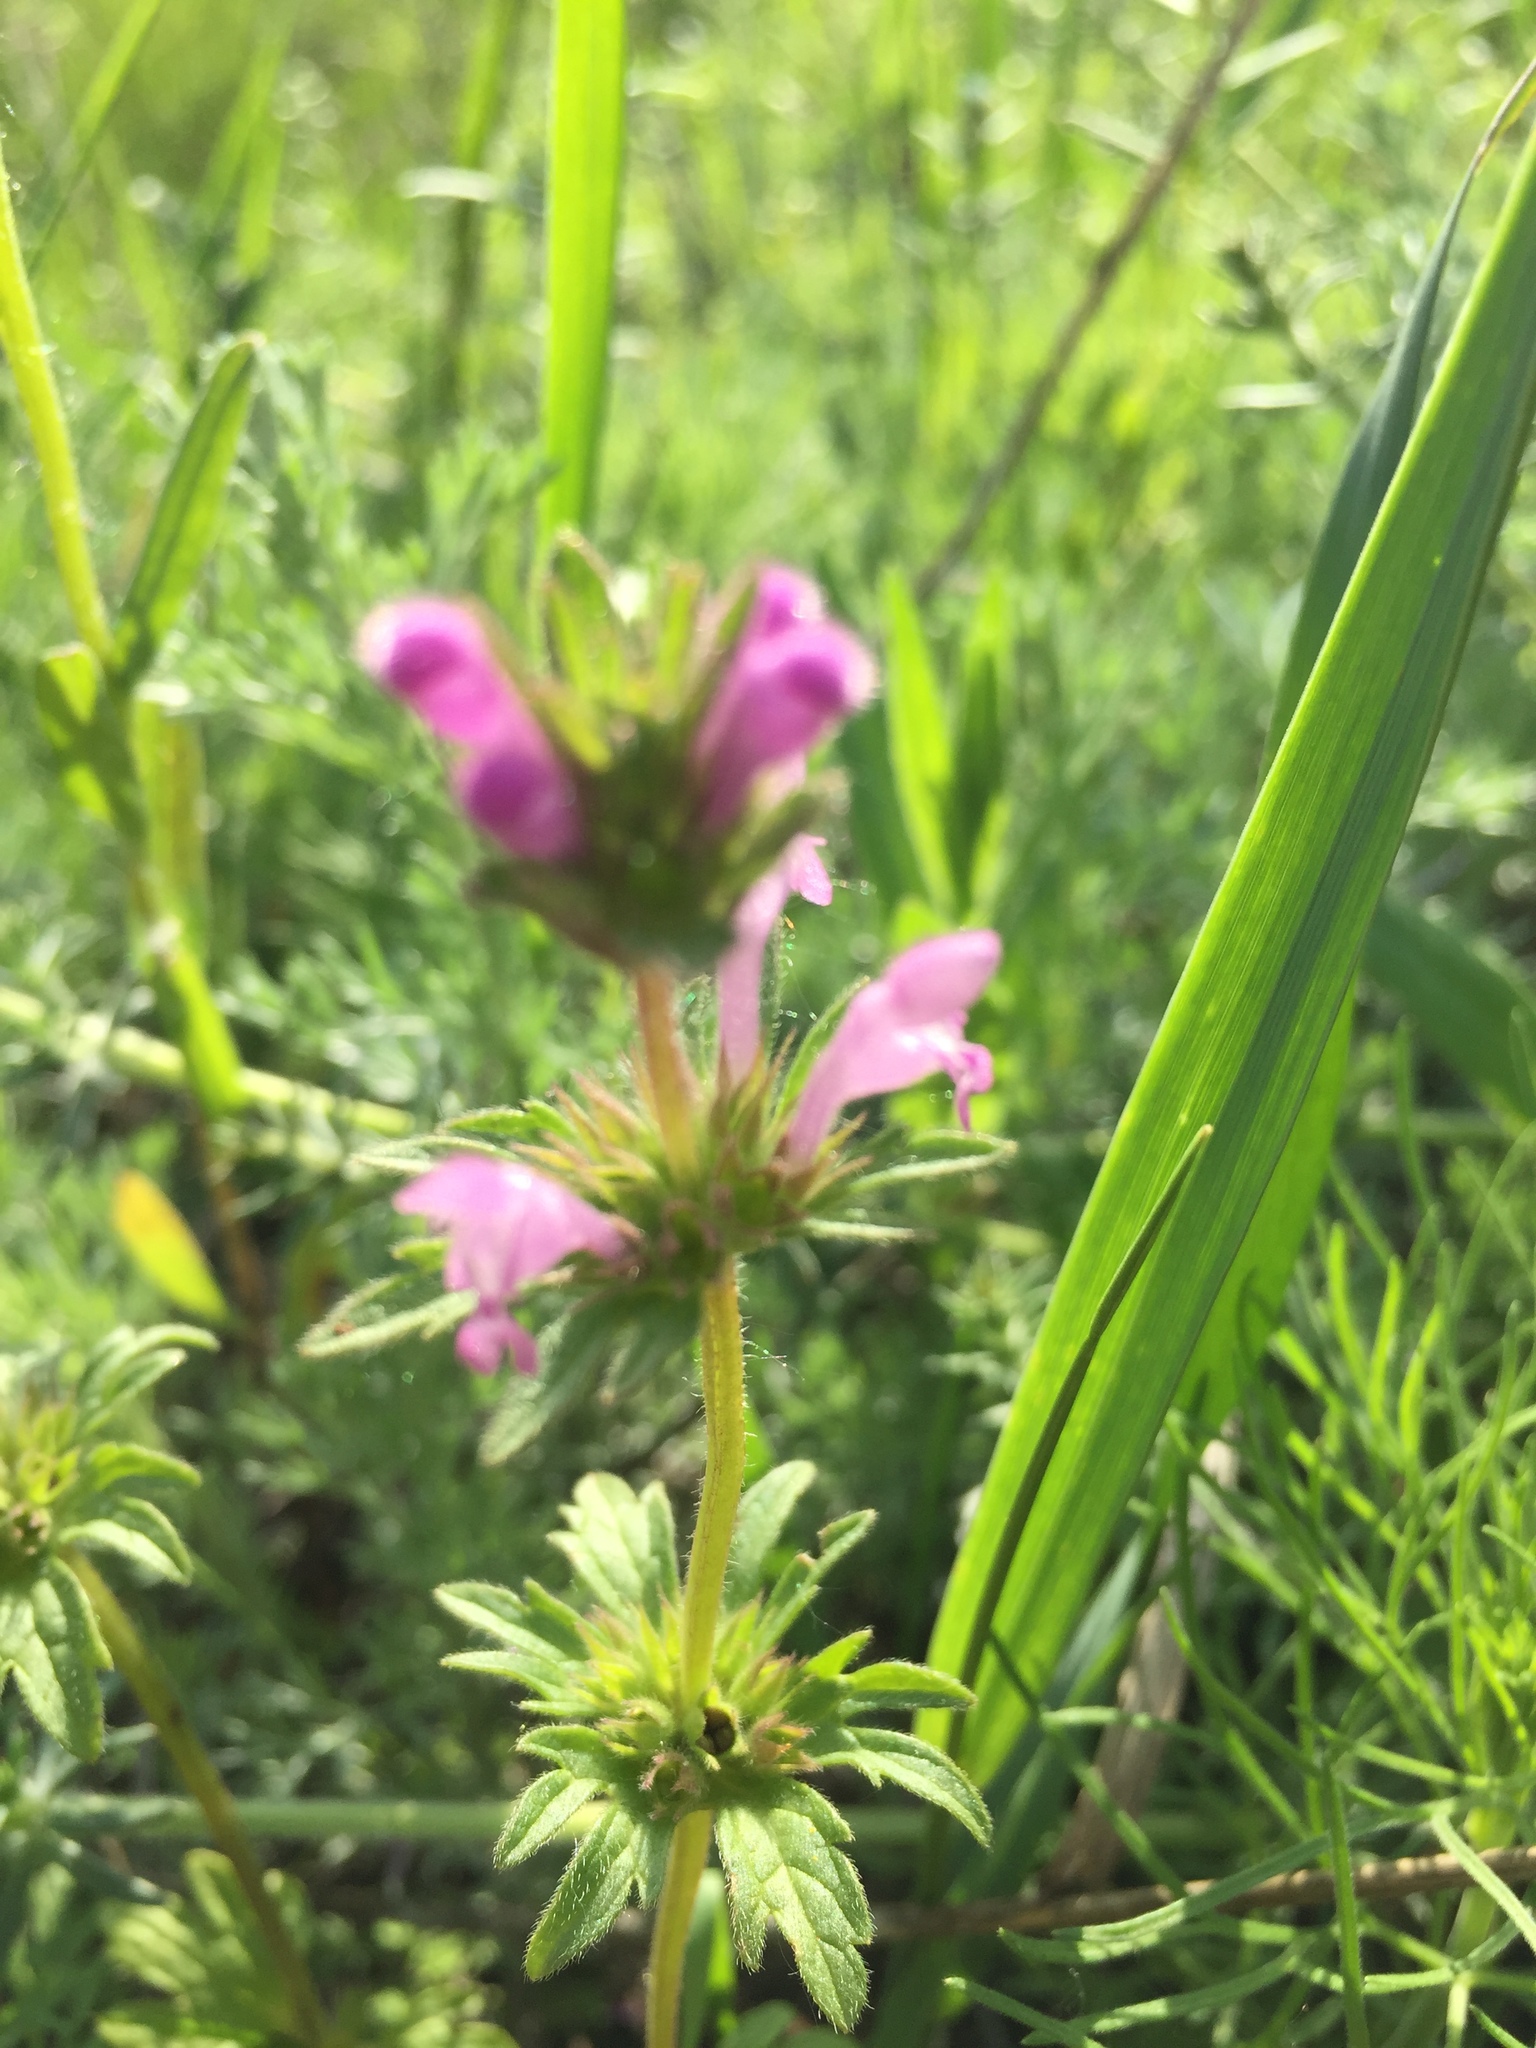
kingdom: Plantae
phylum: Tracheophyta
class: Magnoliopsida
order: Lamiales
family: Lamiaceae
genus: Lamium
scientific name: Lamium amplexicaule
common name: Henbit dead-nettle
